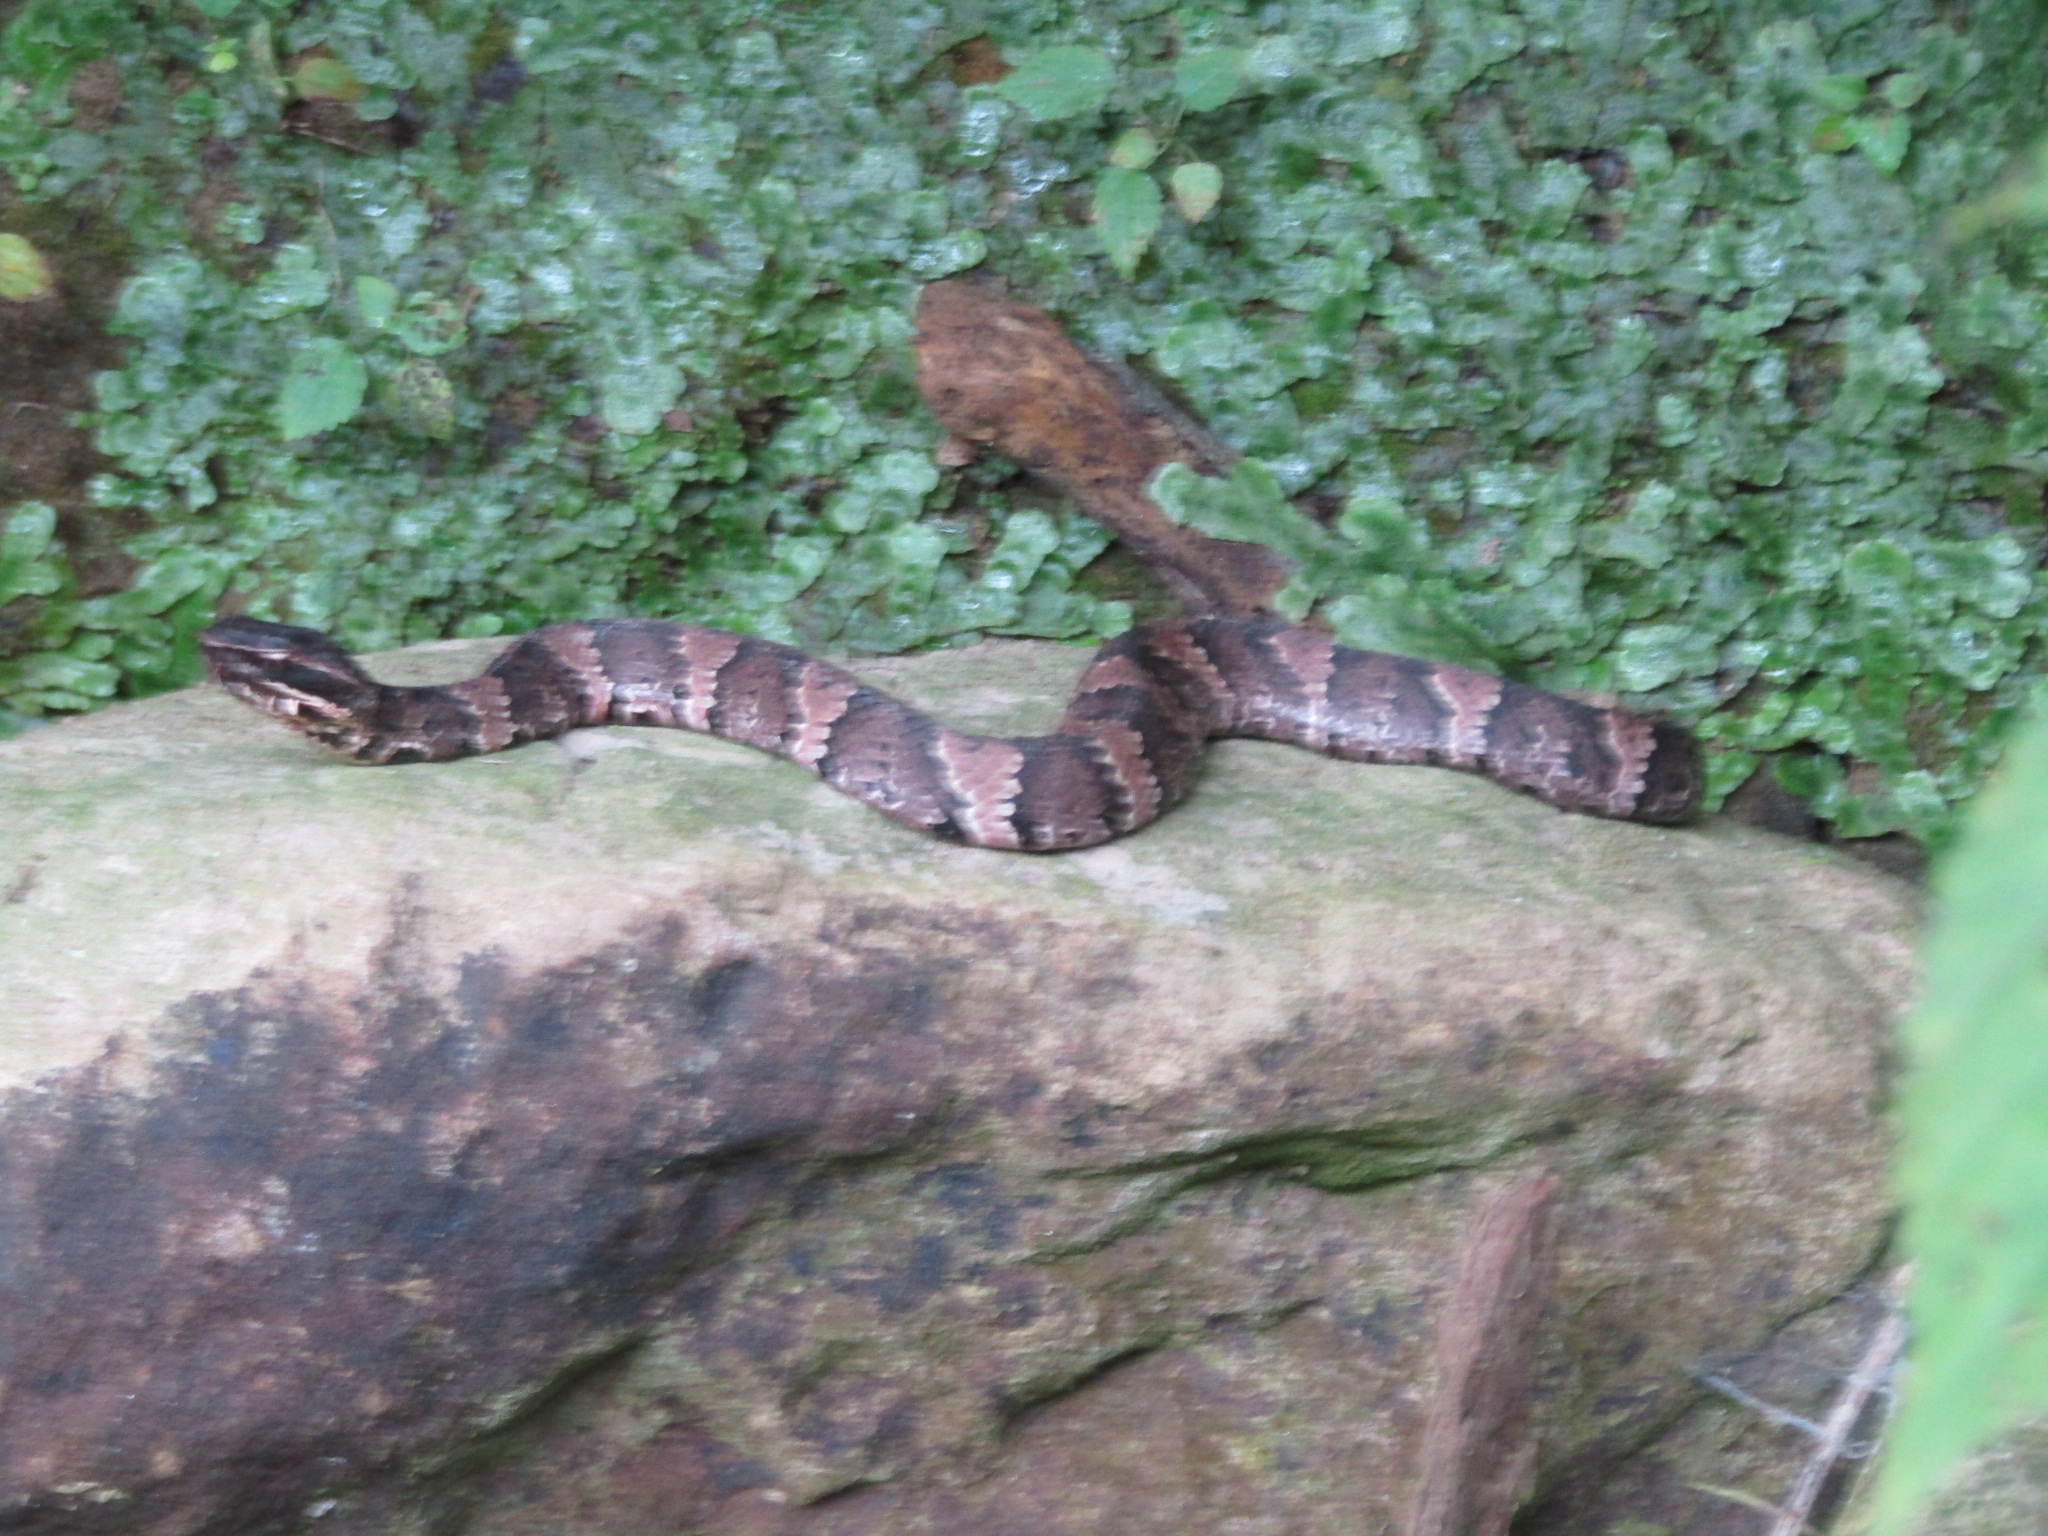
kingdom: Animalia
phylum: Chordata
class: Squamata
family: Viperidae
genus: Agkistrodon
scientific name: Agkistrodon piscivorus
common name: Cottonmouth
